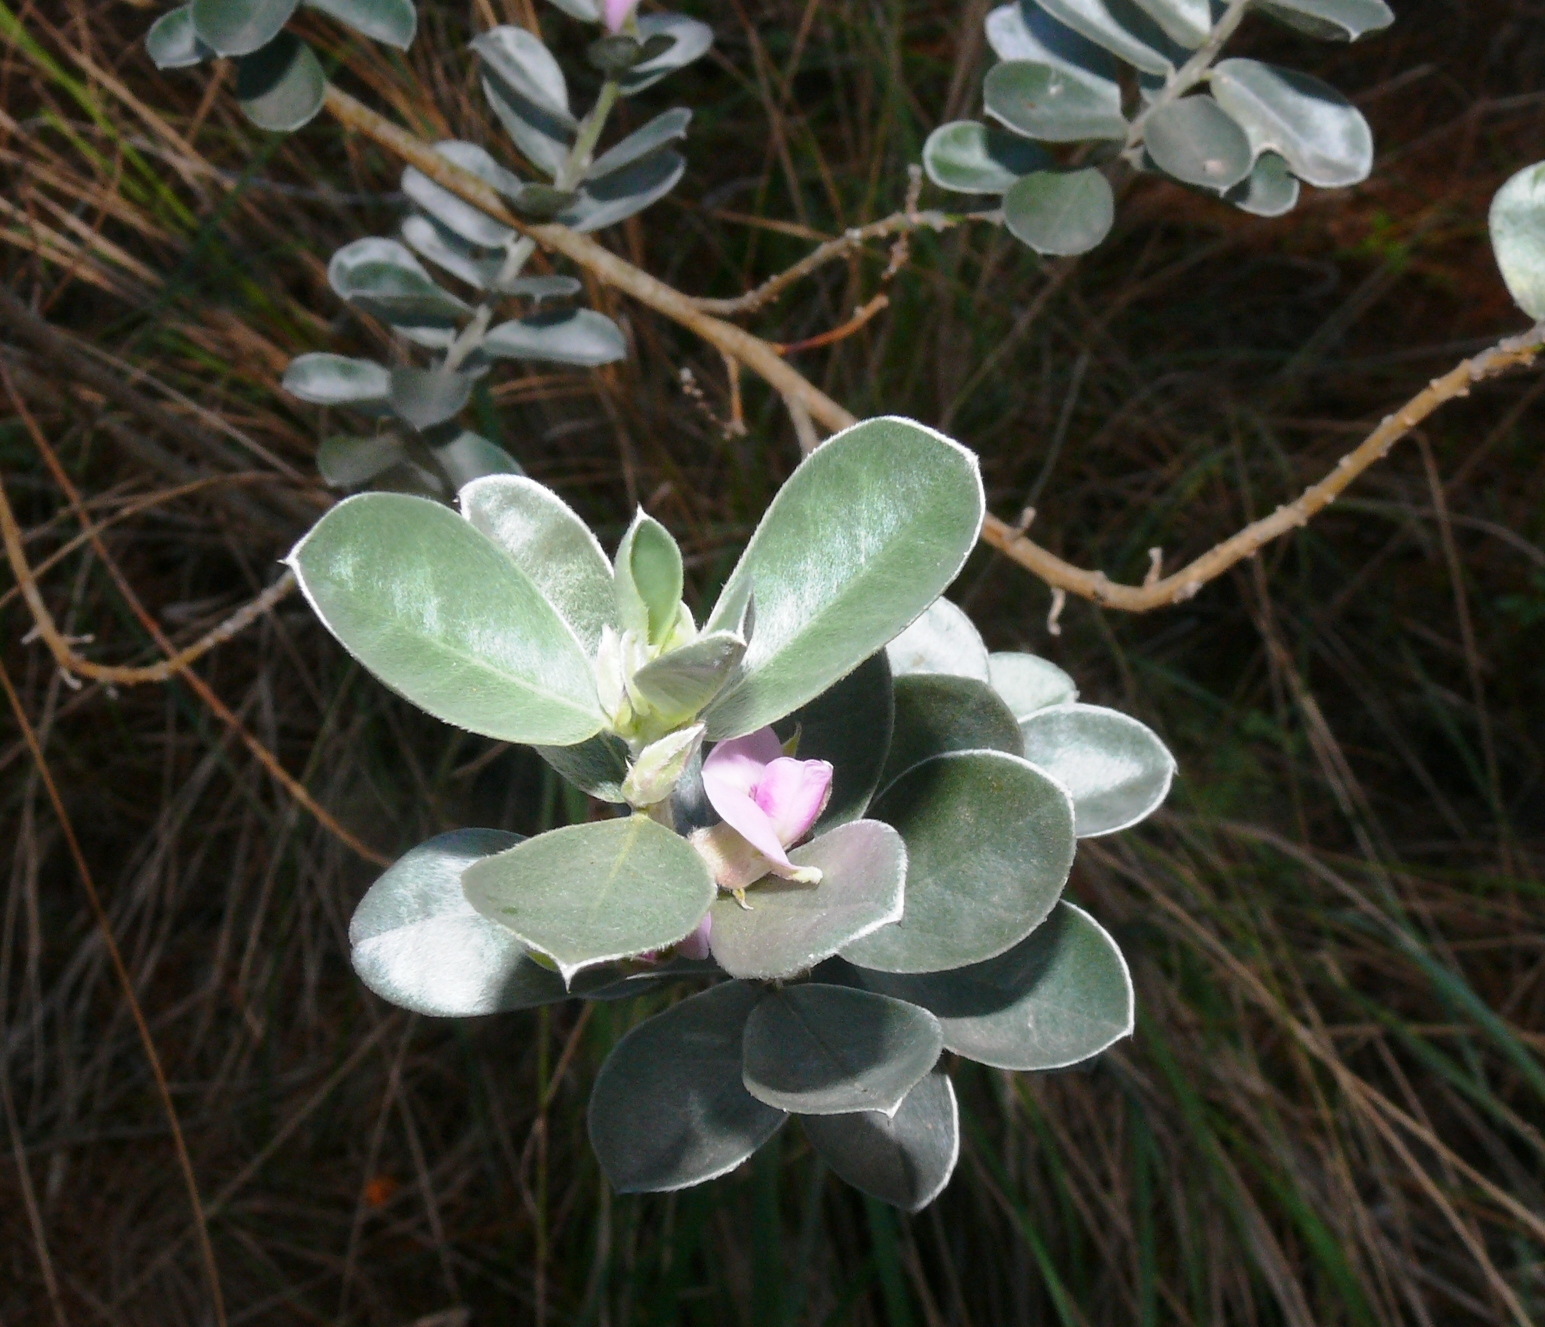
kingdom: Plantae
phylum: Tracheophyta
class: Magnoliopsida
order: Fabales
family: Fabaceae
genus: Podalyria
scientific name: Podalyria sericea
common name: Silver podalyria
